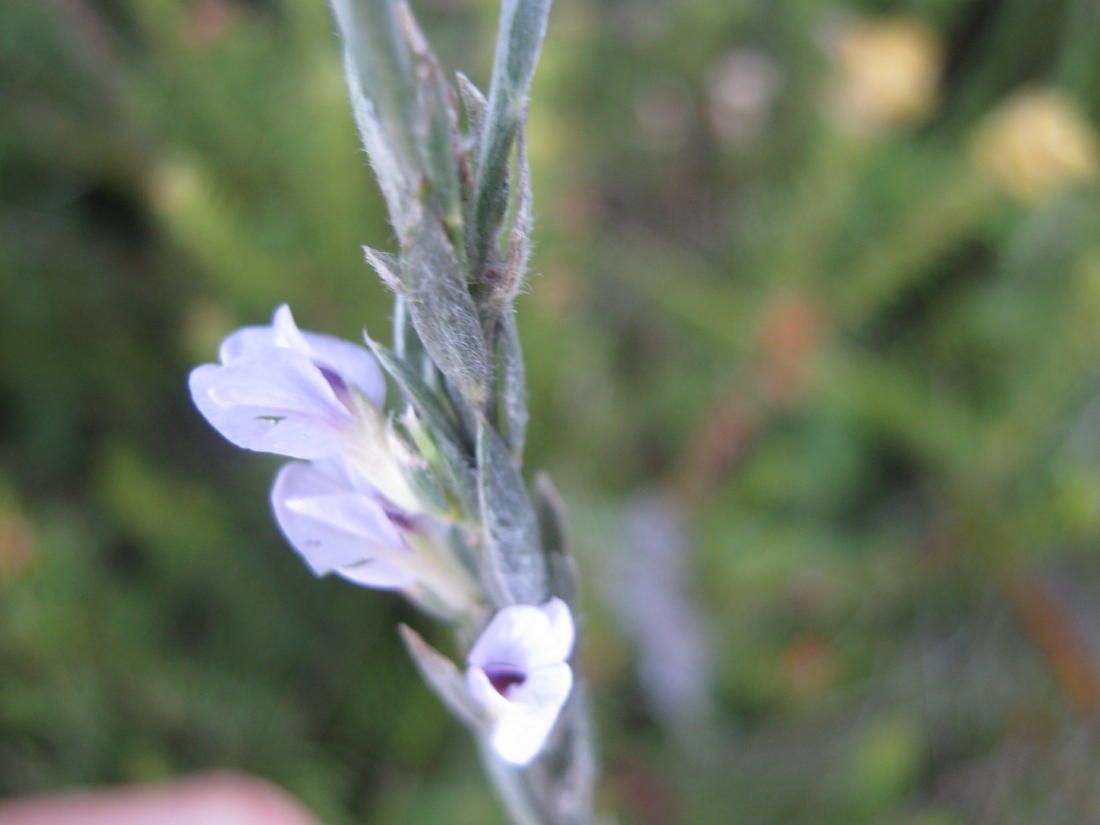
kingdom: Plantae
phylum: Tracheophyta
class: Magnoliopsida
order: Fabales
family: Fabaceae
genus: Amphithalea
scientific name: Amphithalea axillaris
